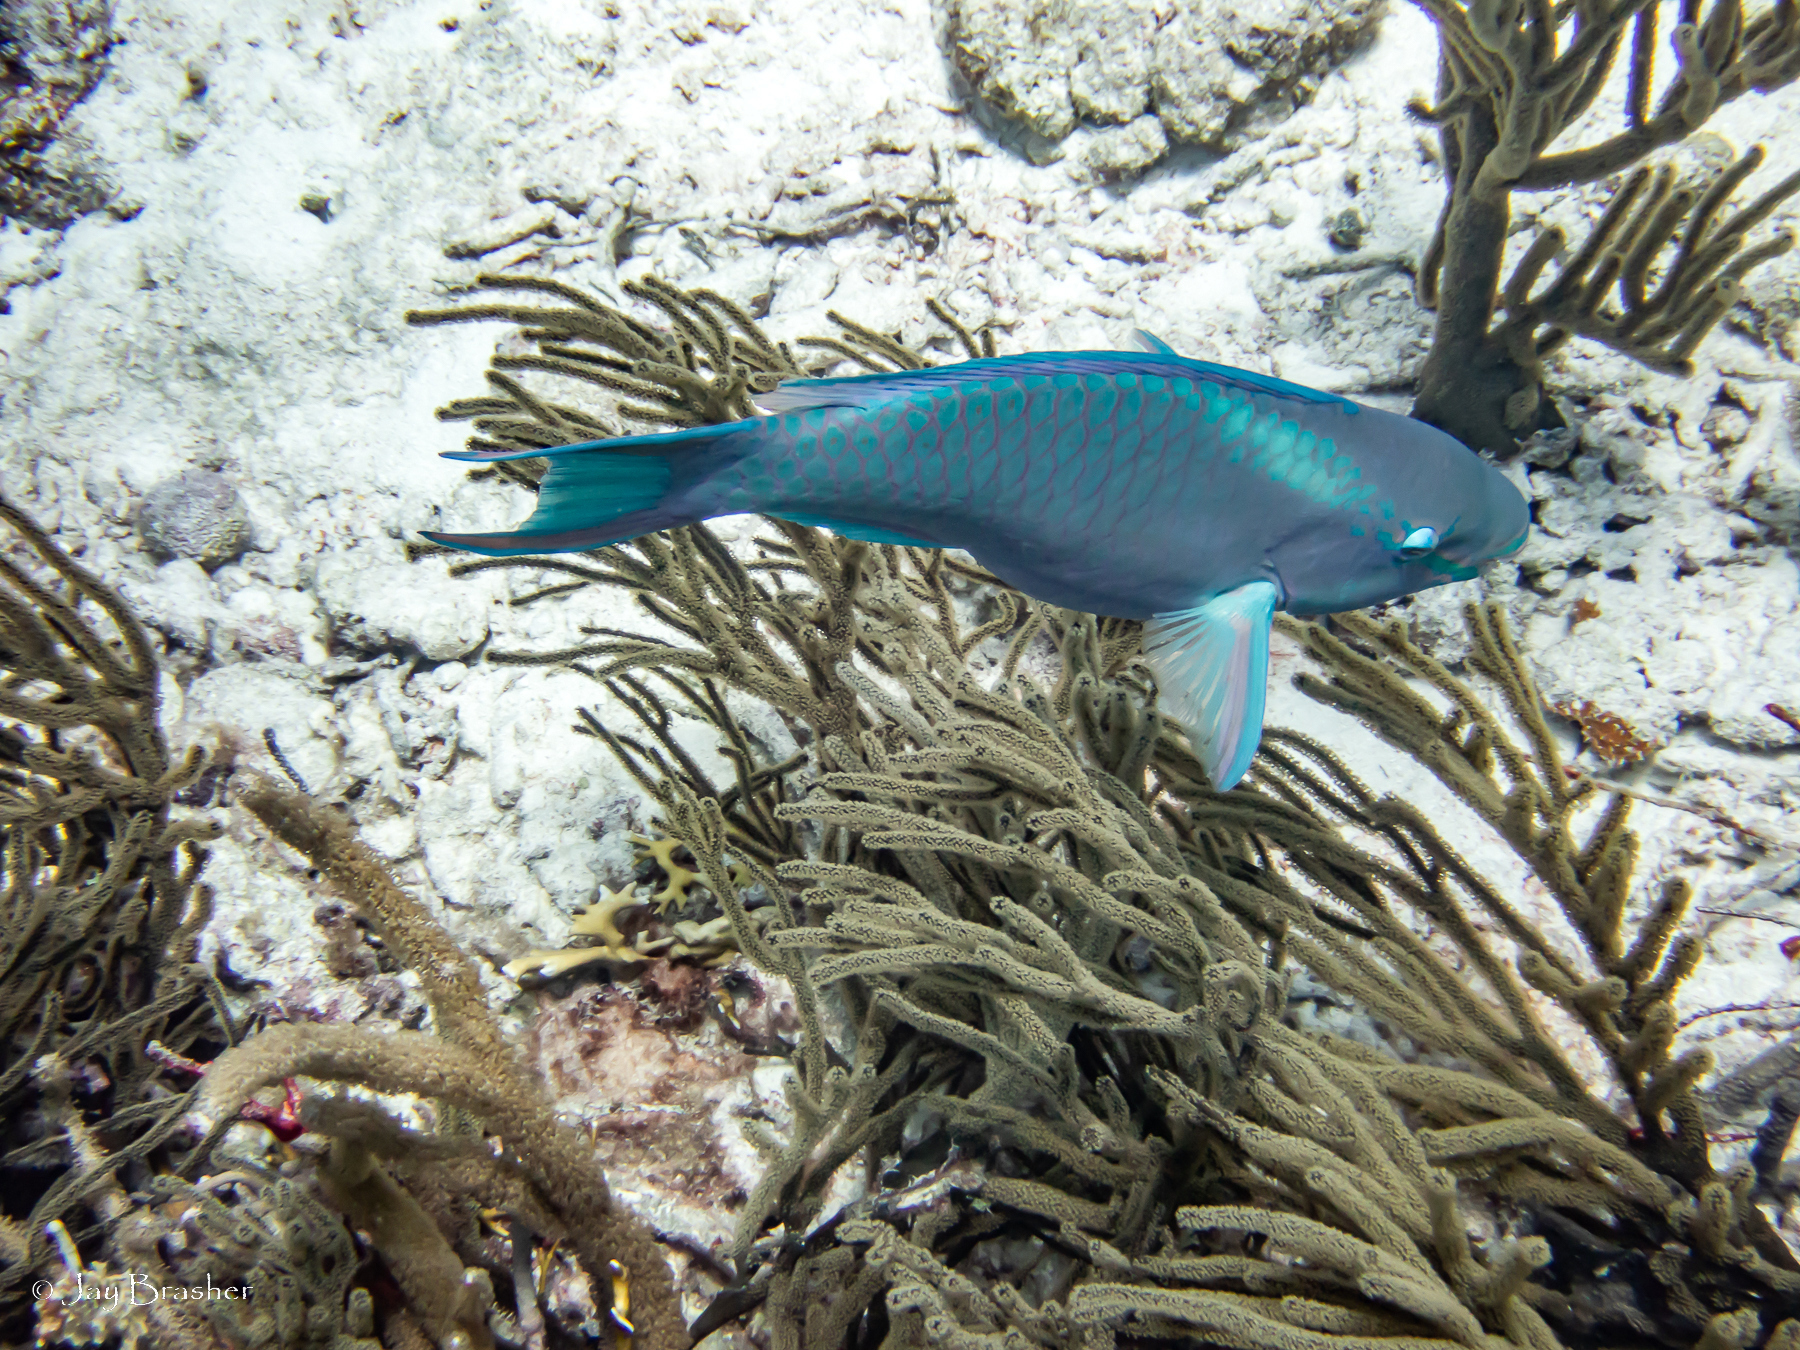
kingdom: Animalia
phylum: Chordata
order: Perciformes
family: Scaridae
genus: Scarus
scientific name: Scarus vetula
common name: Queen parrotfish
